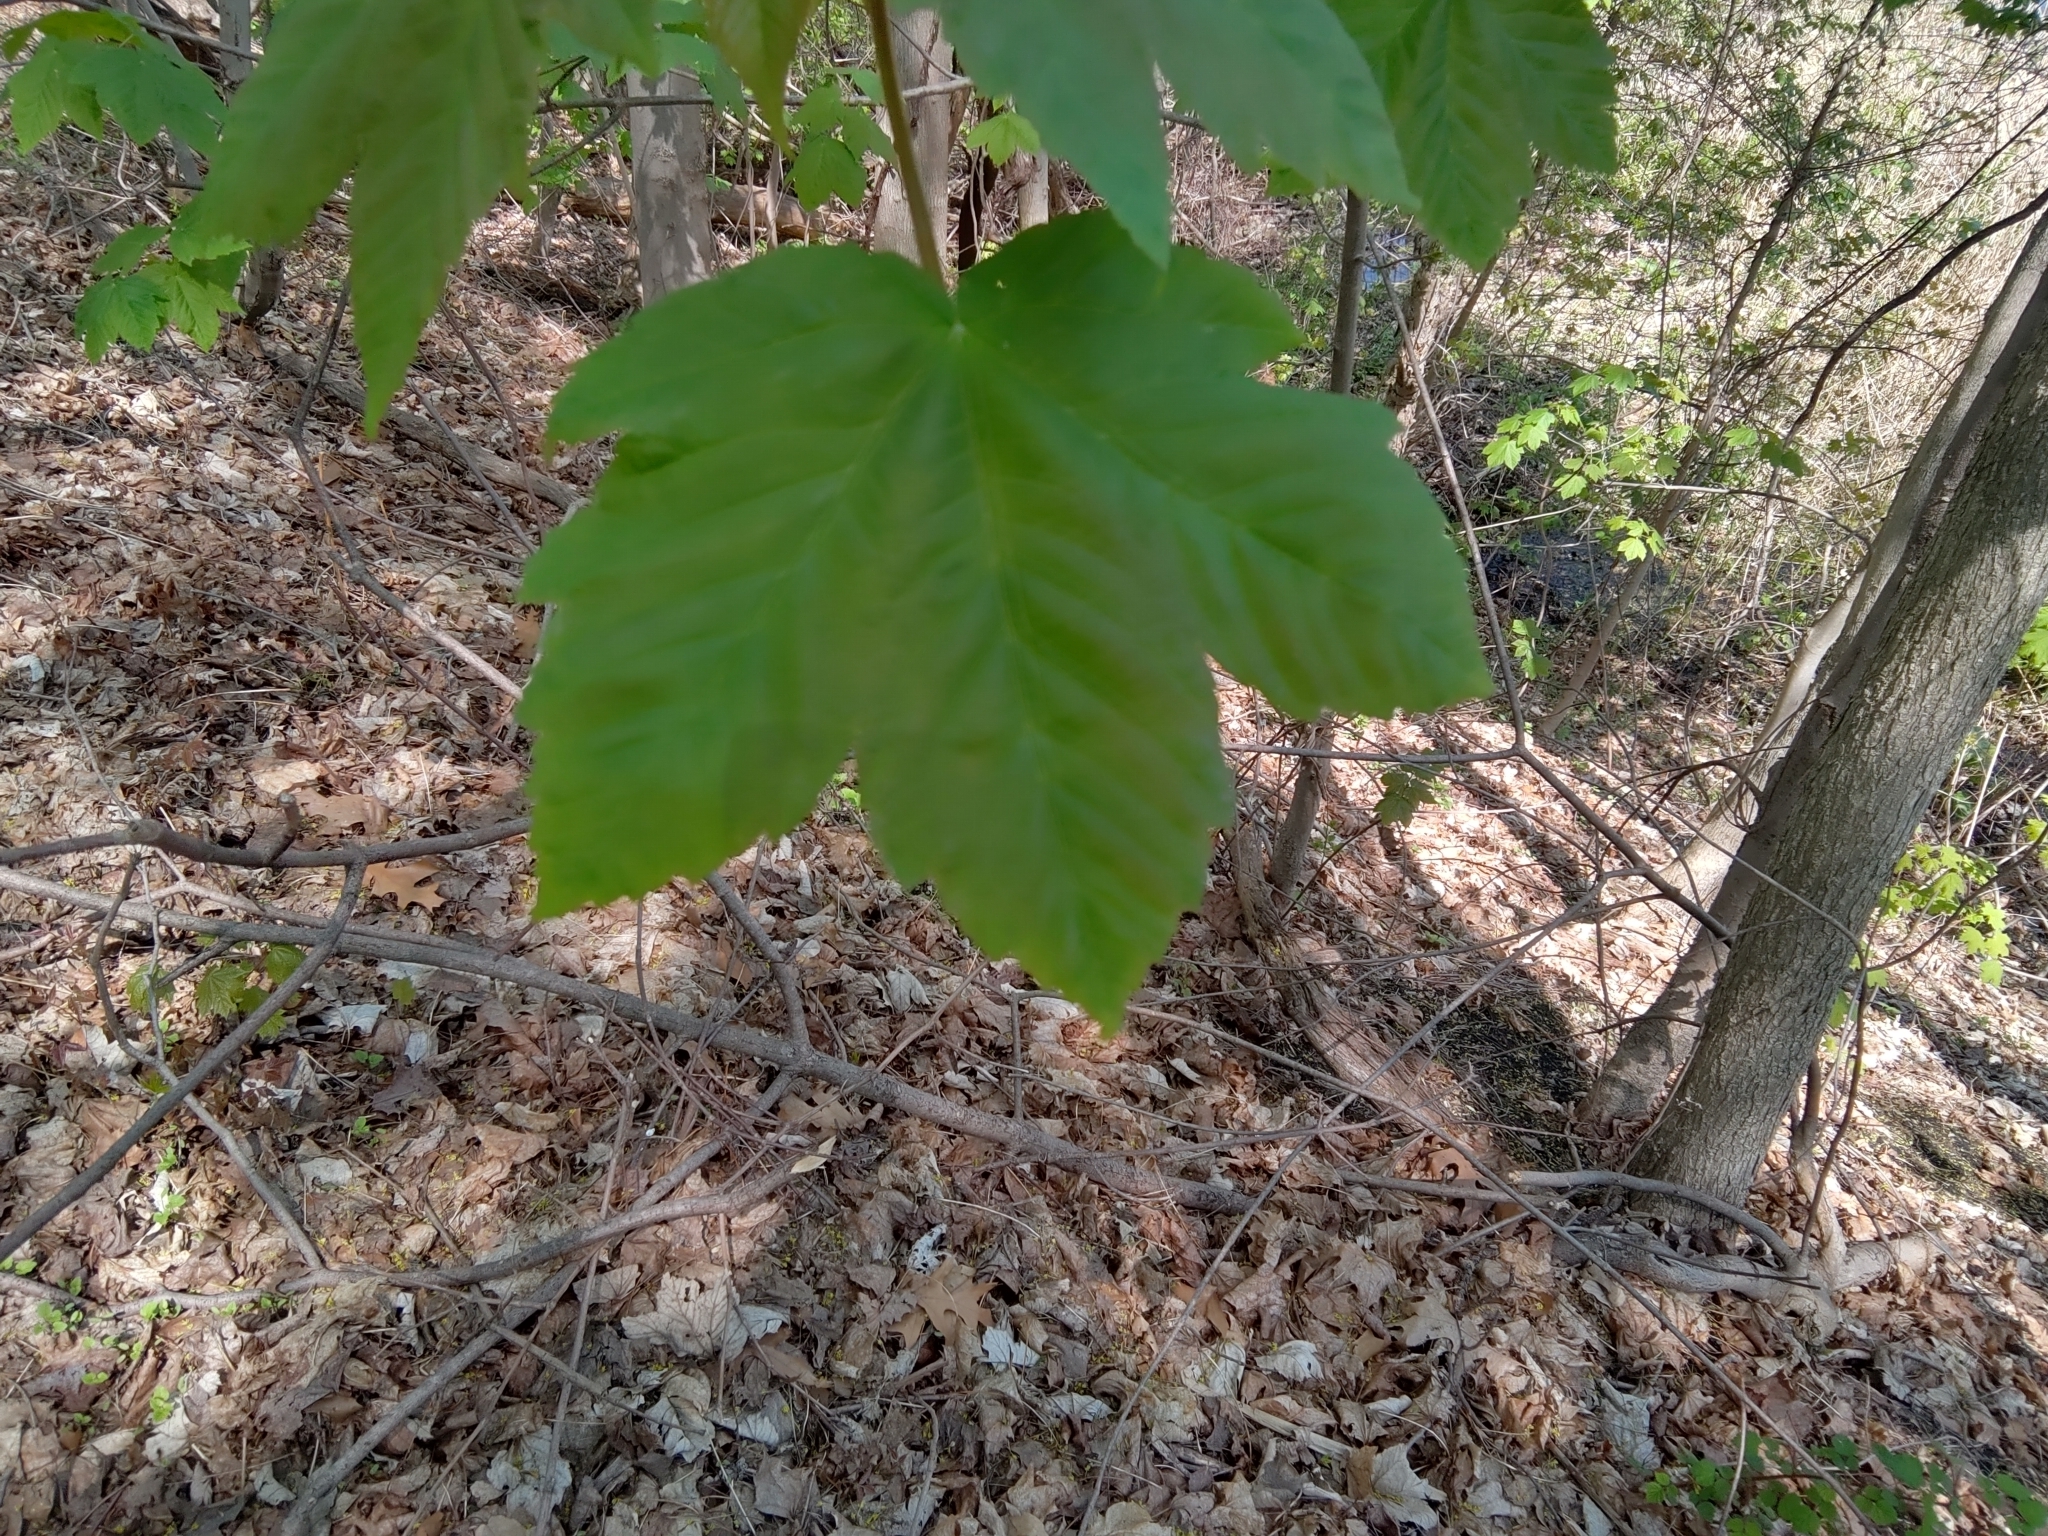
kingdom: Plantae
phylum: Tracheophyta
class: Magnoliopsida
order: Sapindales
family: Sapindaceae
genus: Acer
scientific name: Acer pseudoplatanus
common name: Sycamore
